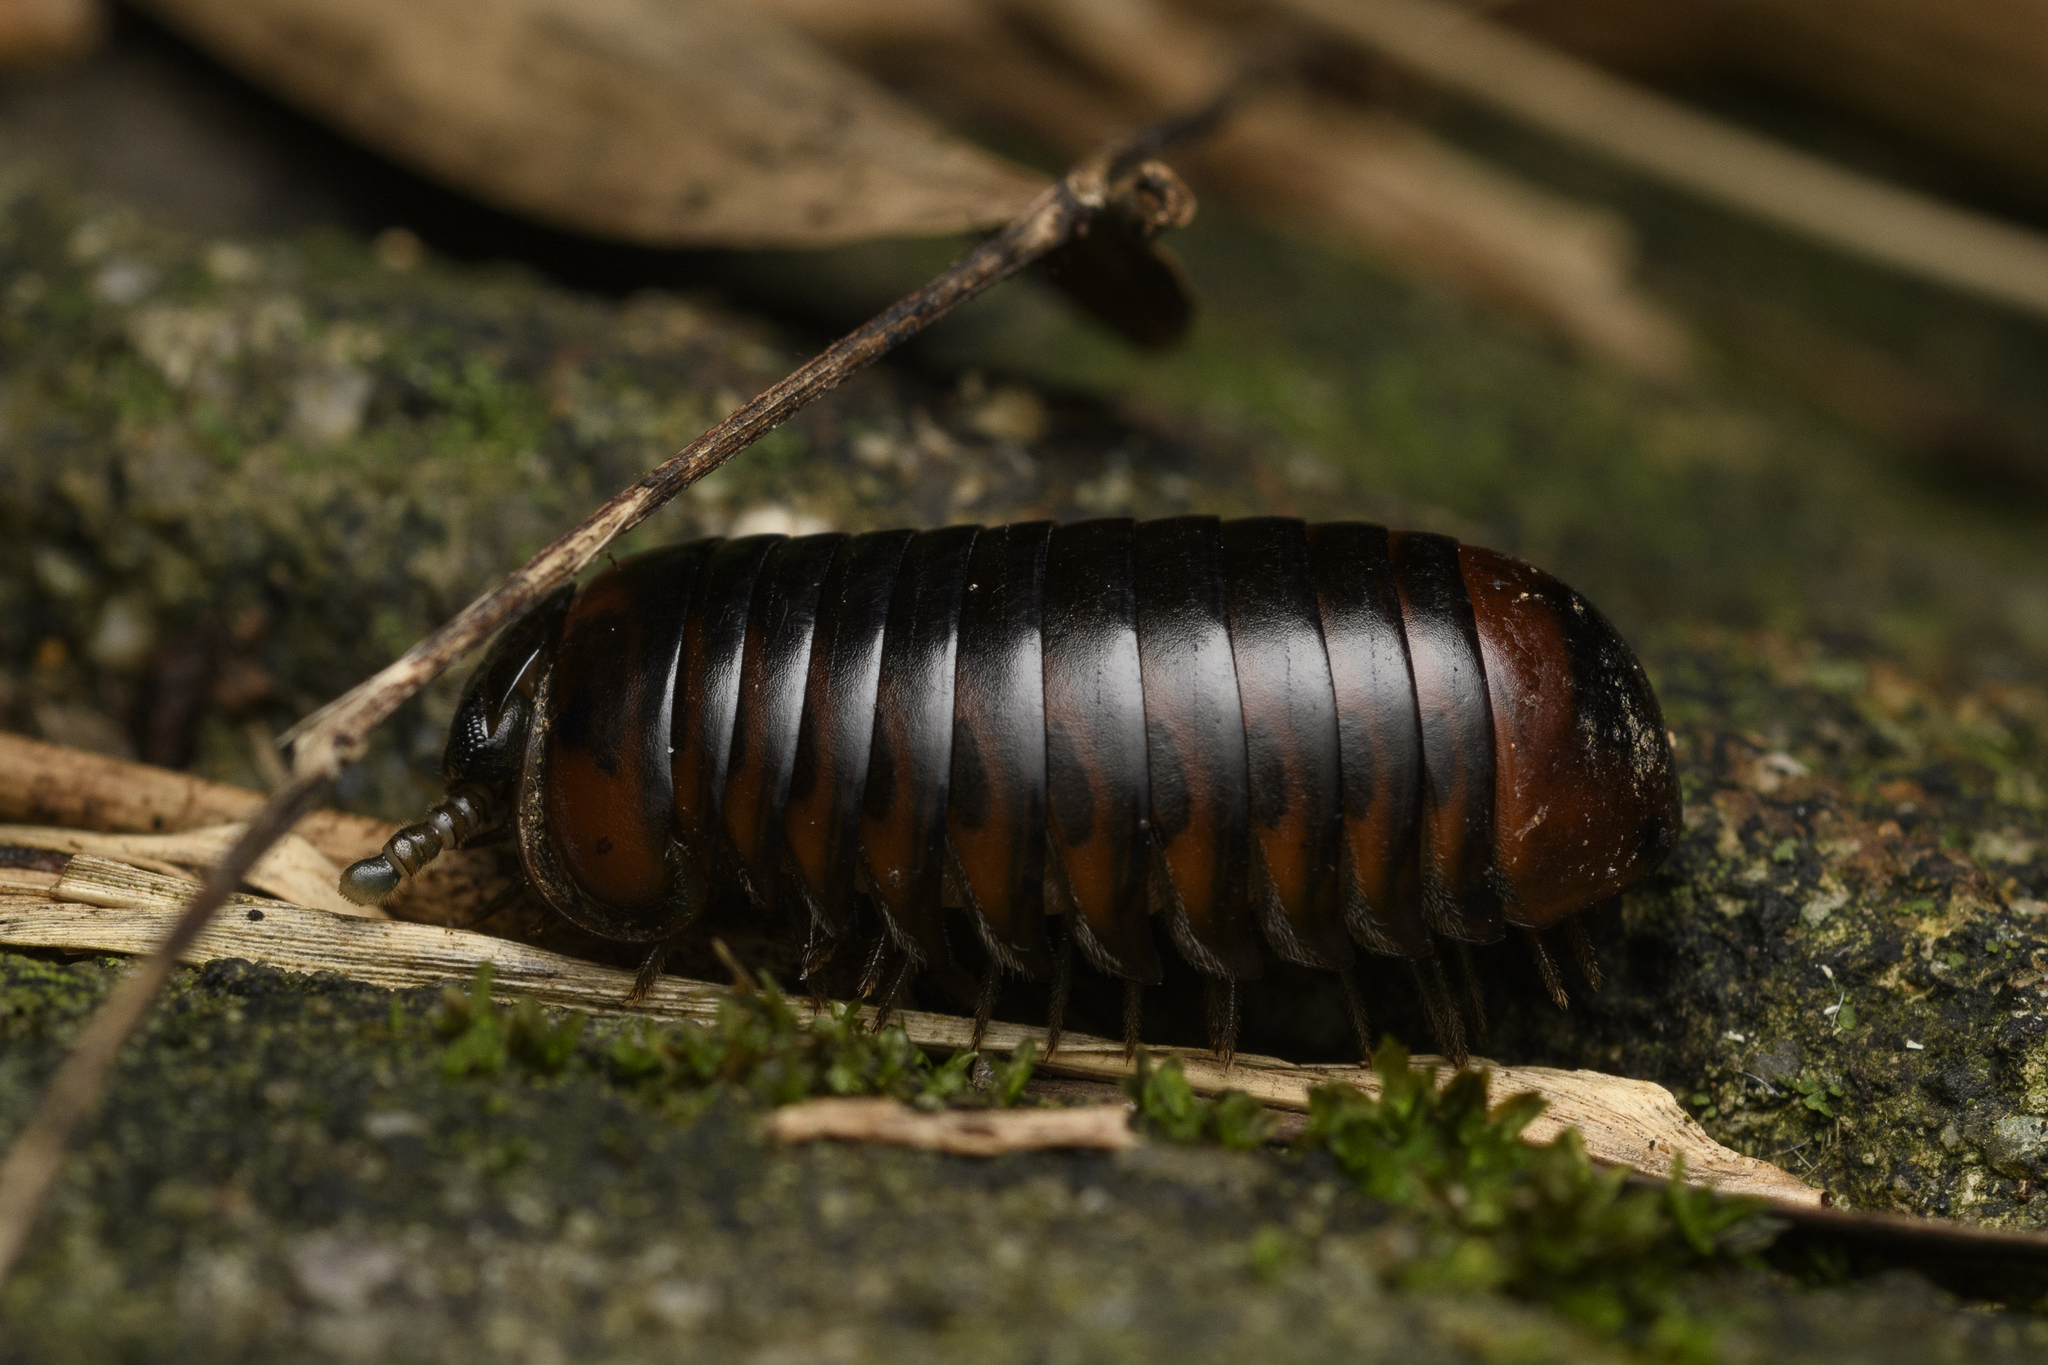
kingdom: Animalia
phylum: Arthropoda
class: Diplopoda
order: Sphaerotheriida
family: Zephroniidae
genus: Zephronia
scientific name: Zephronia profuga
